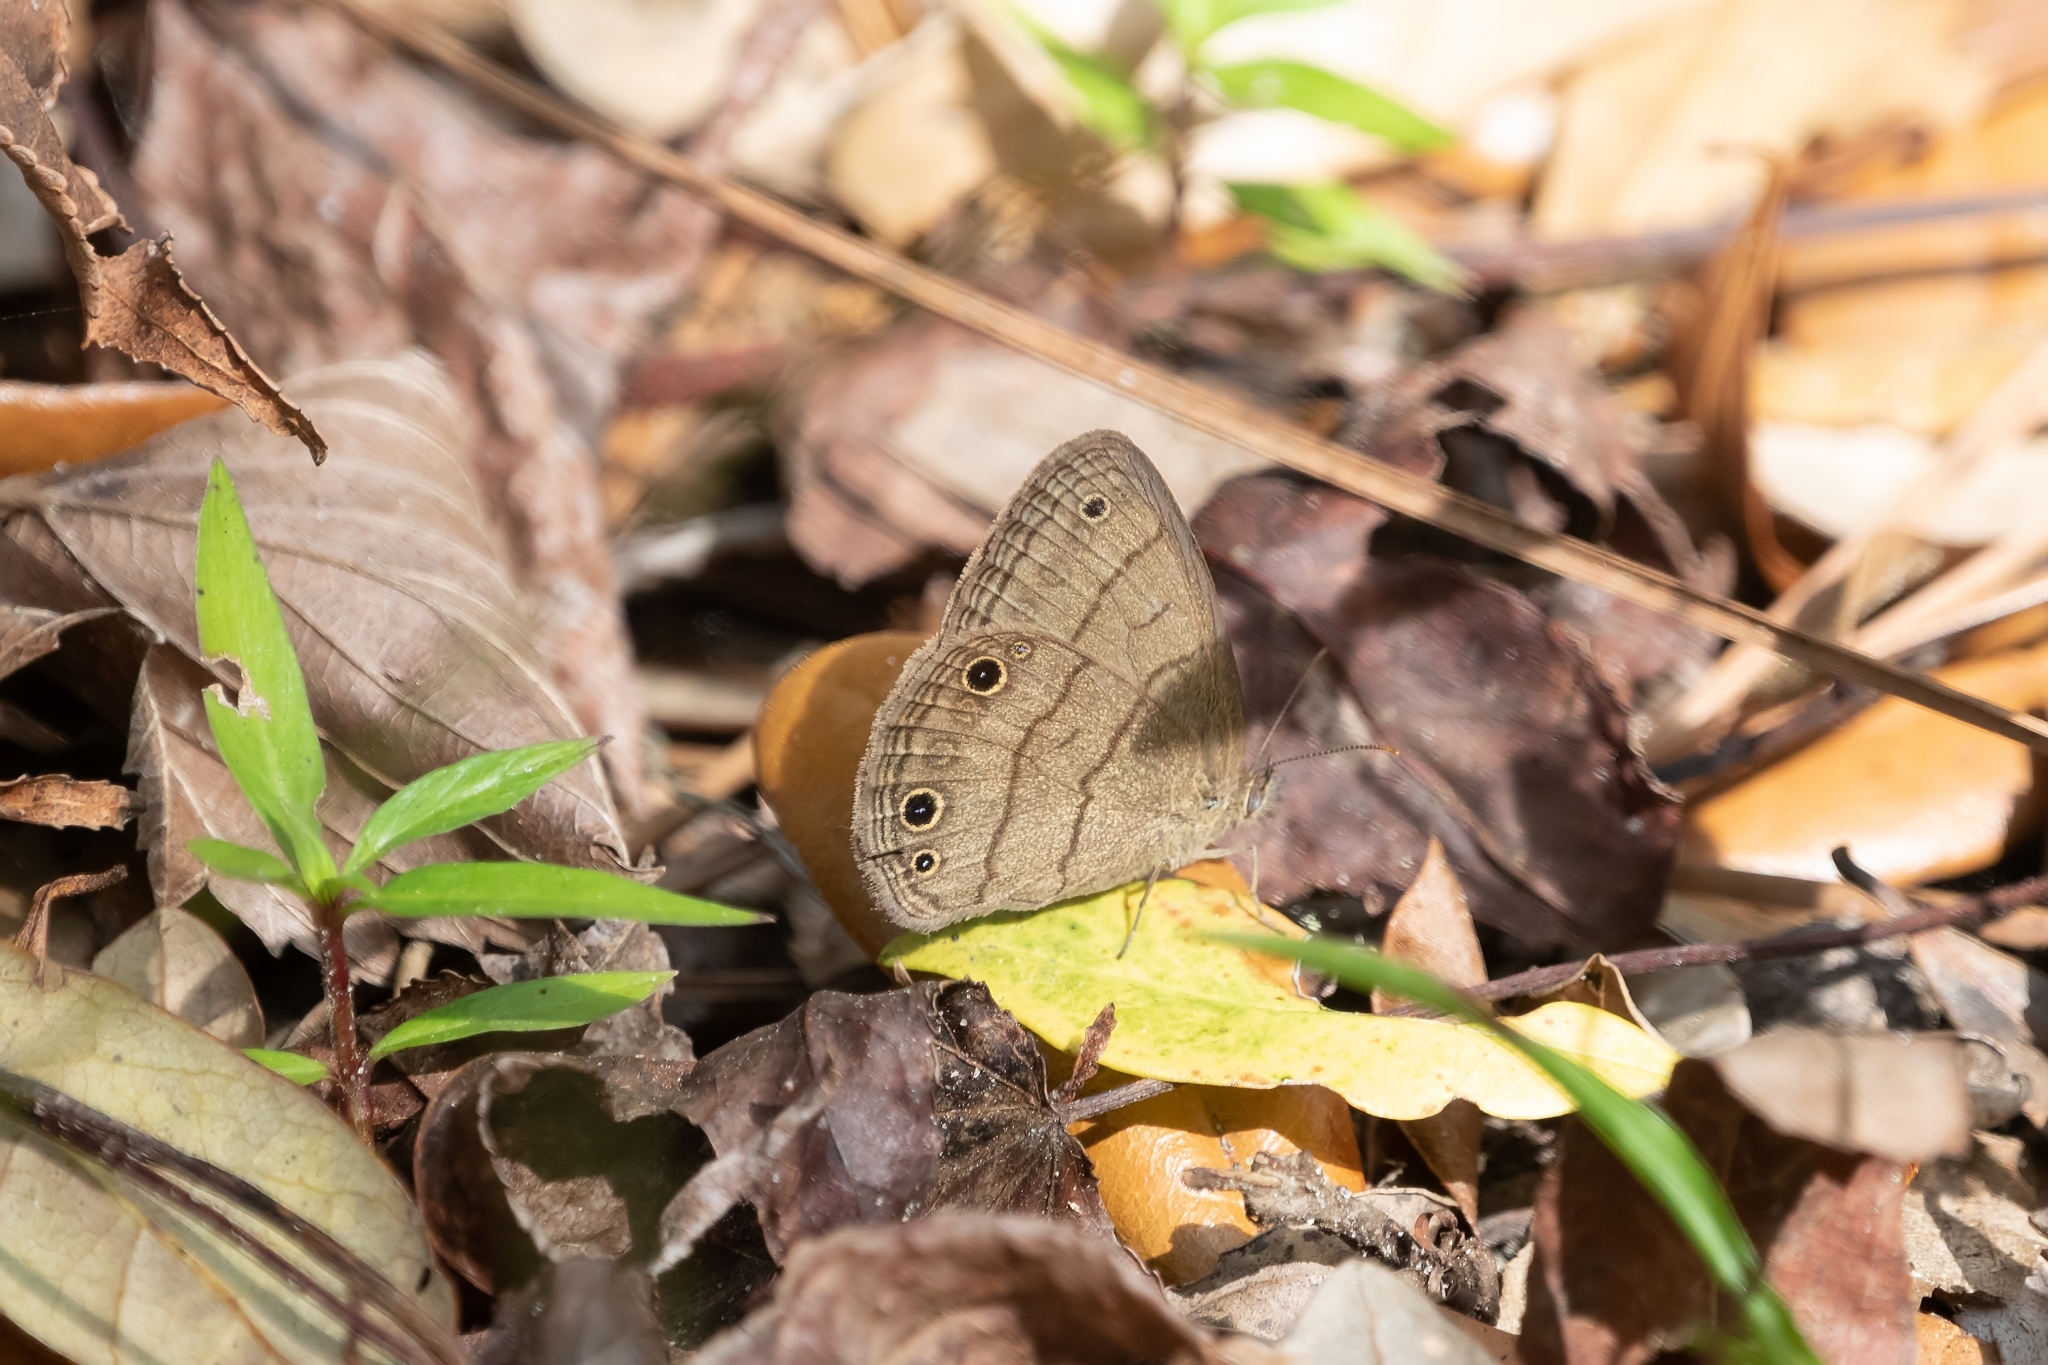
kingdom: Animalia
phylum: Arthropoda
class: Insecta
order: Lepidoptera
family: Nymphalidae
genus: Hermeuptychia
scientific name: Hermeuptychia hermes
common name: Hermes satyr
